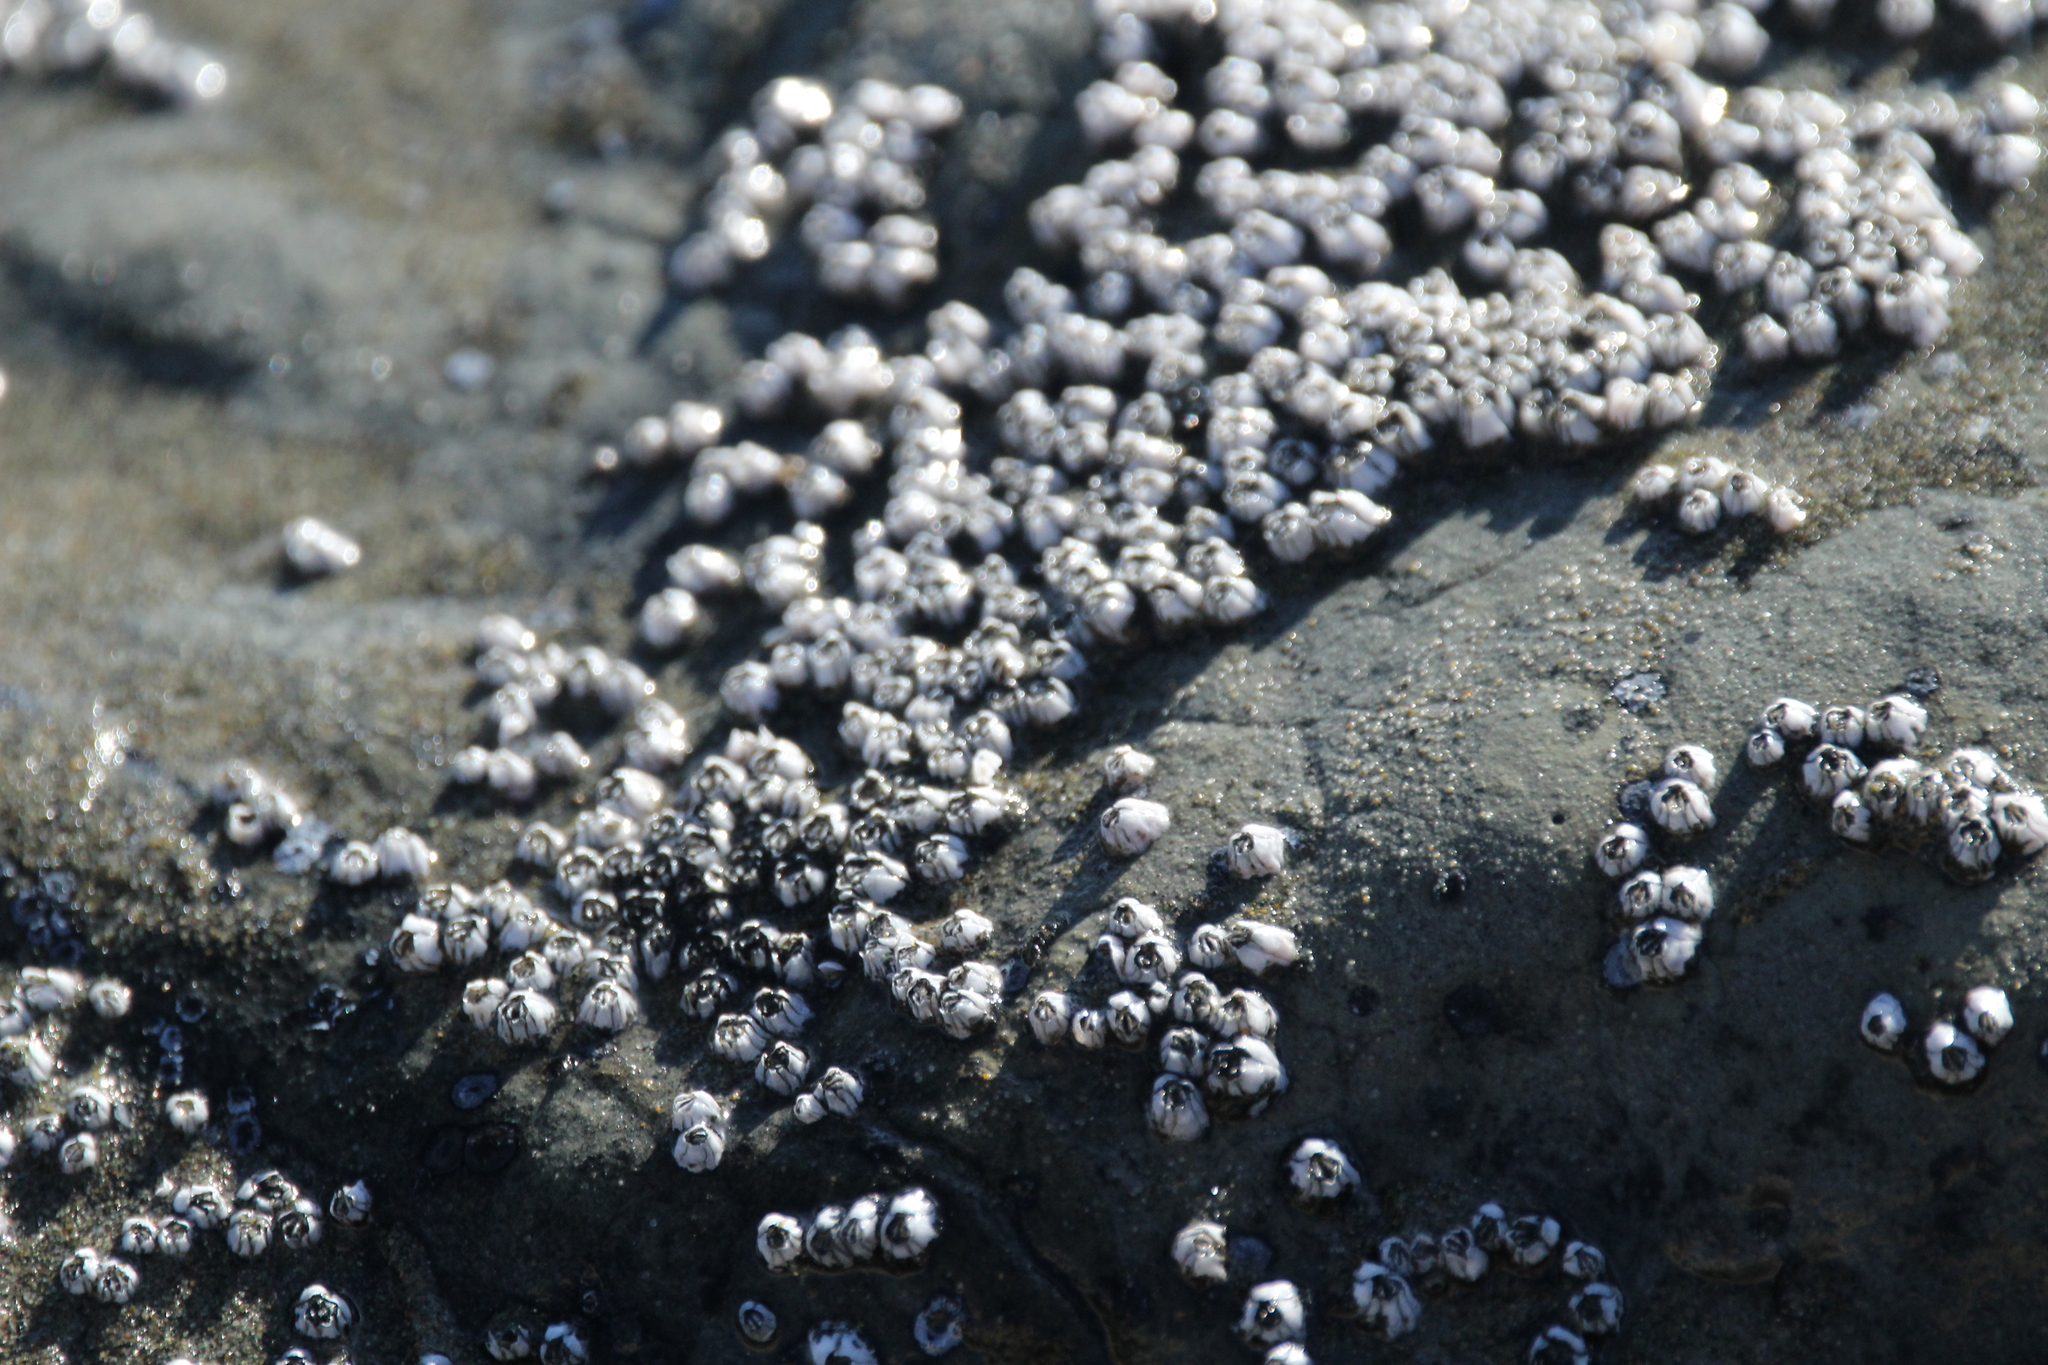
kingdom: Animalia
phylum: Arthropoda
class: Maxillopoda
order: Sessilia
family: Balanidae
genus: Balanus
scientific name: Balanus glandula
